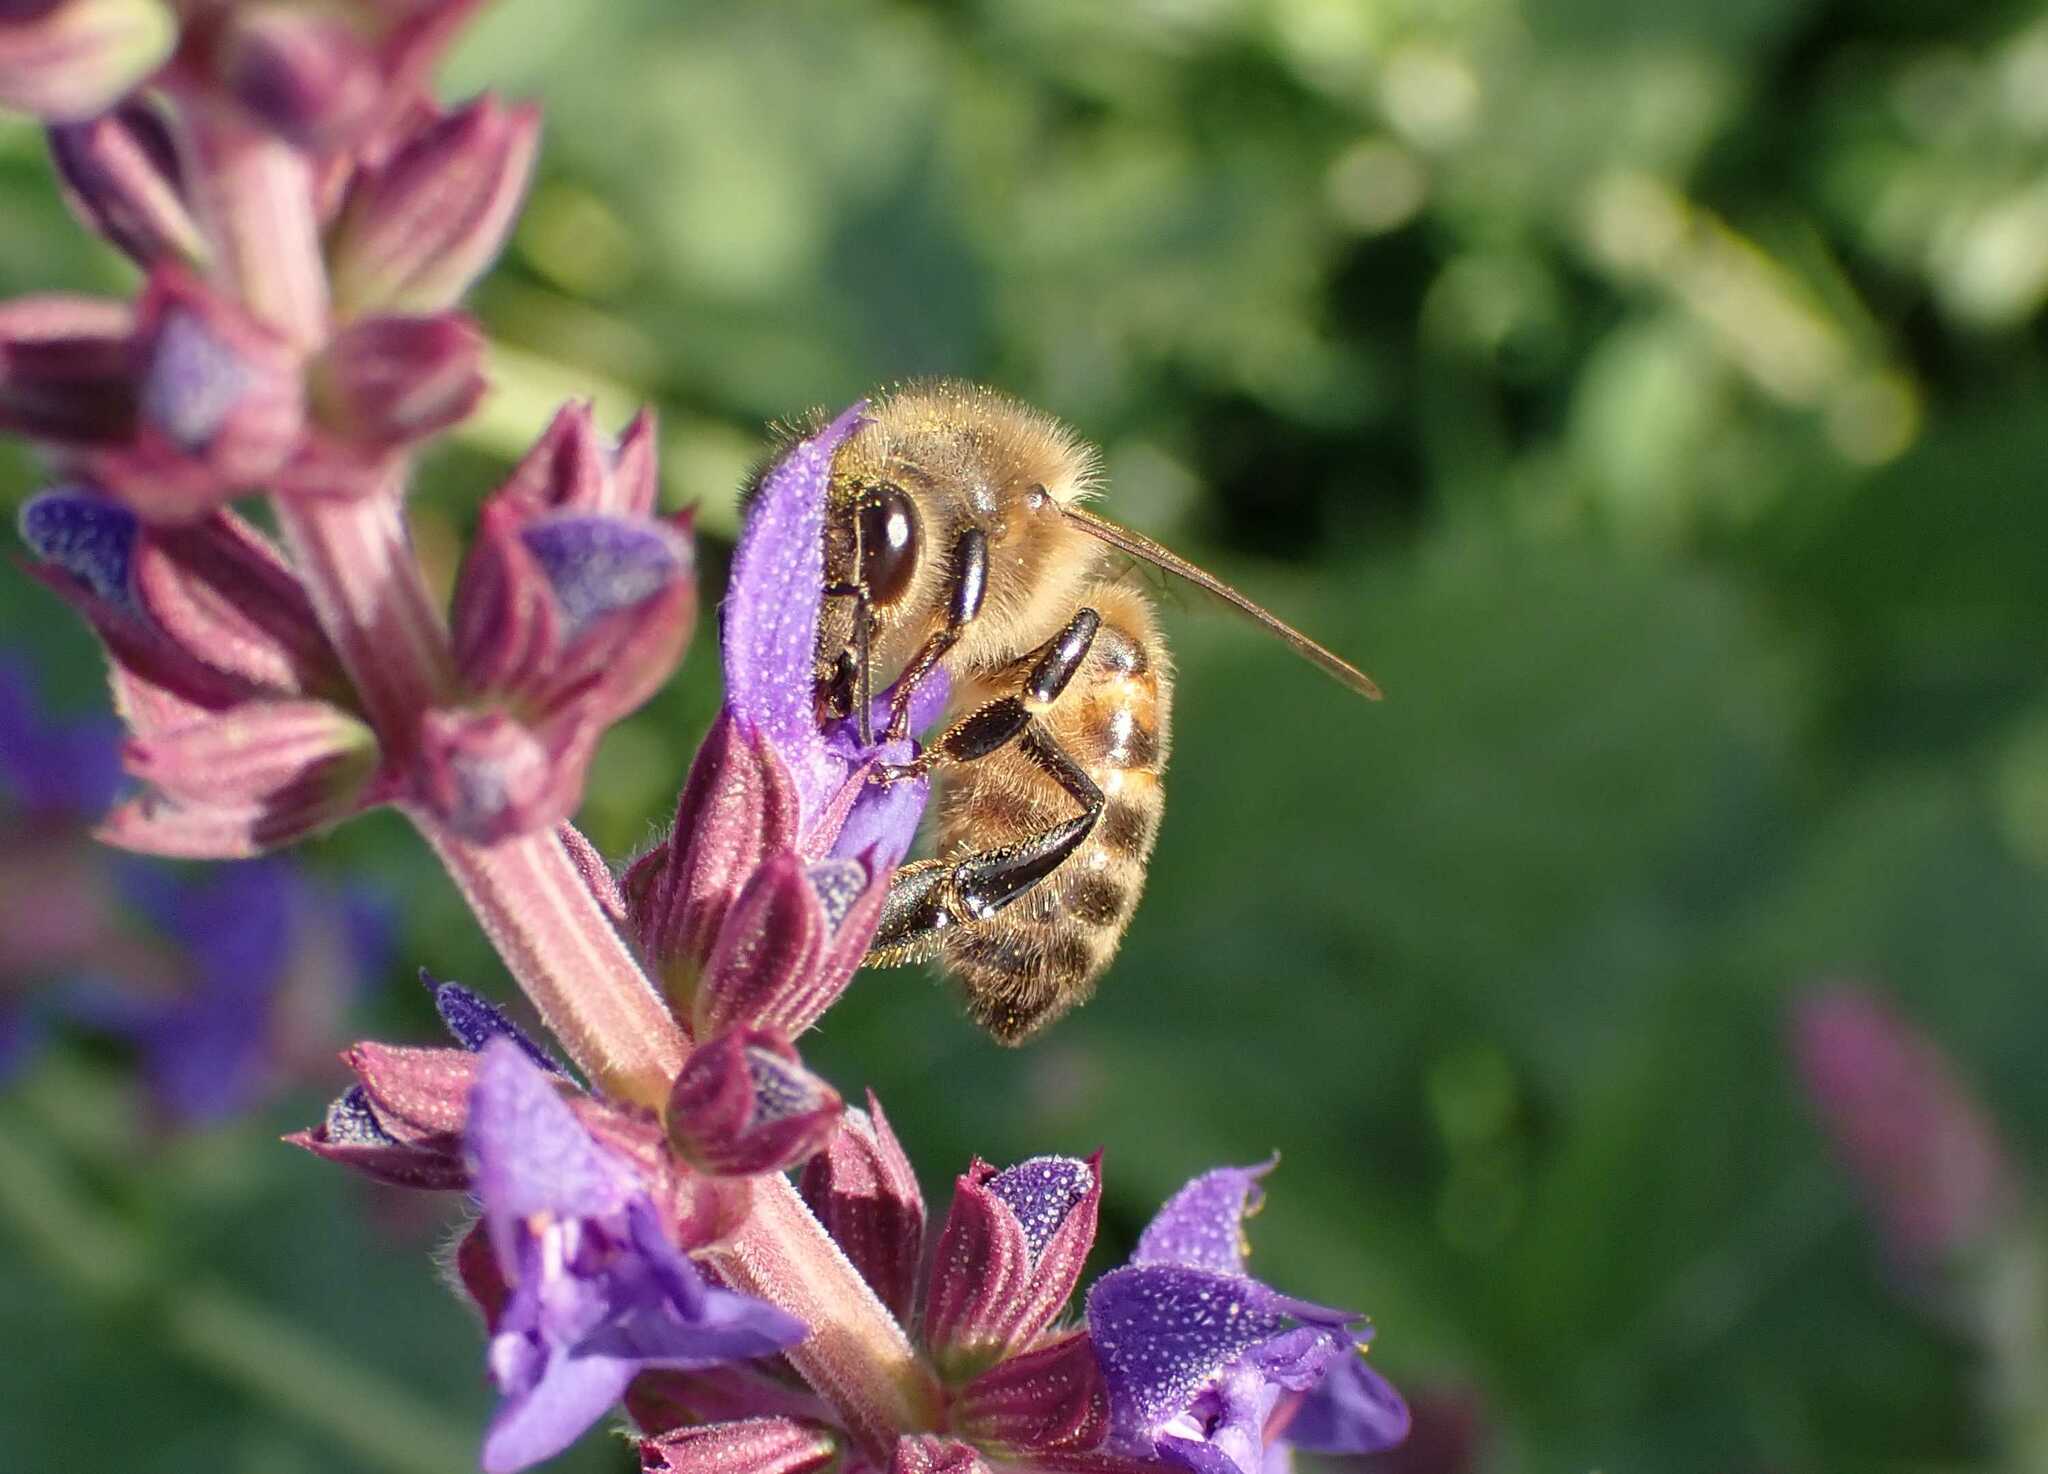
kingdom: Animalia
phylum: Arthropoda
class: Insecta
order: Hymenoptera
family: Apidae
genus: Apis
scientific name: Apis mellifera
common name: Honey bee
